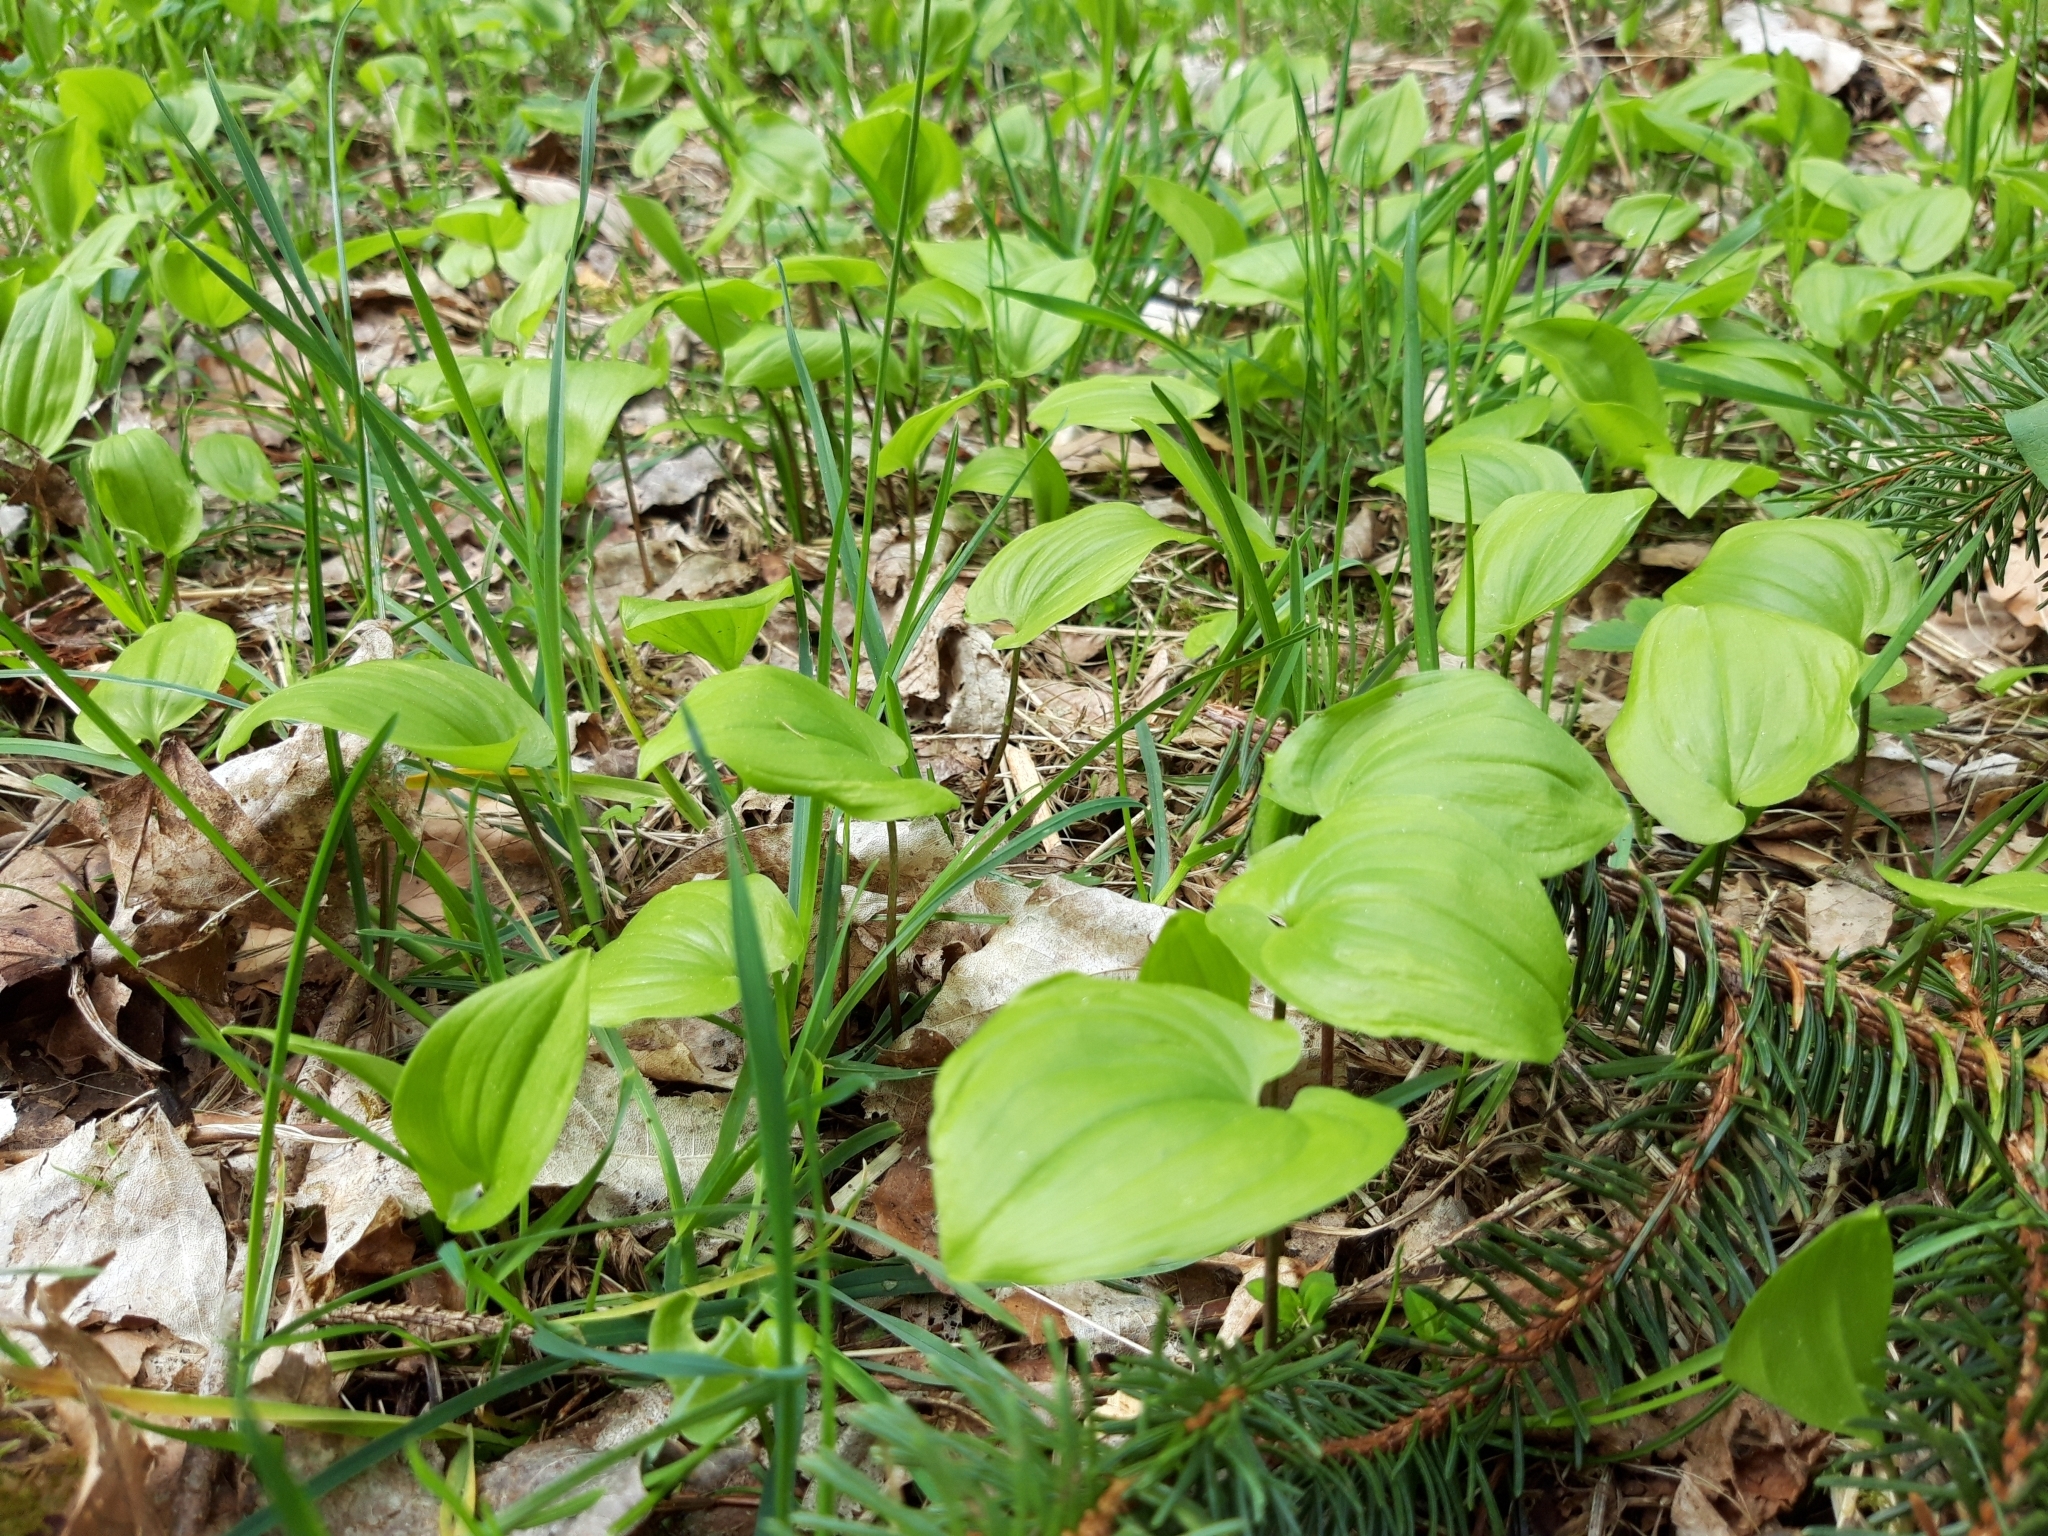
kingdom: Plantae
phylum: Tracheophyta
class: Liliopsida
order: Asparagales
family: Asparagaceae
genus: Maianthemum
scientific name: Maianthemum bifolium
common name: May lily
